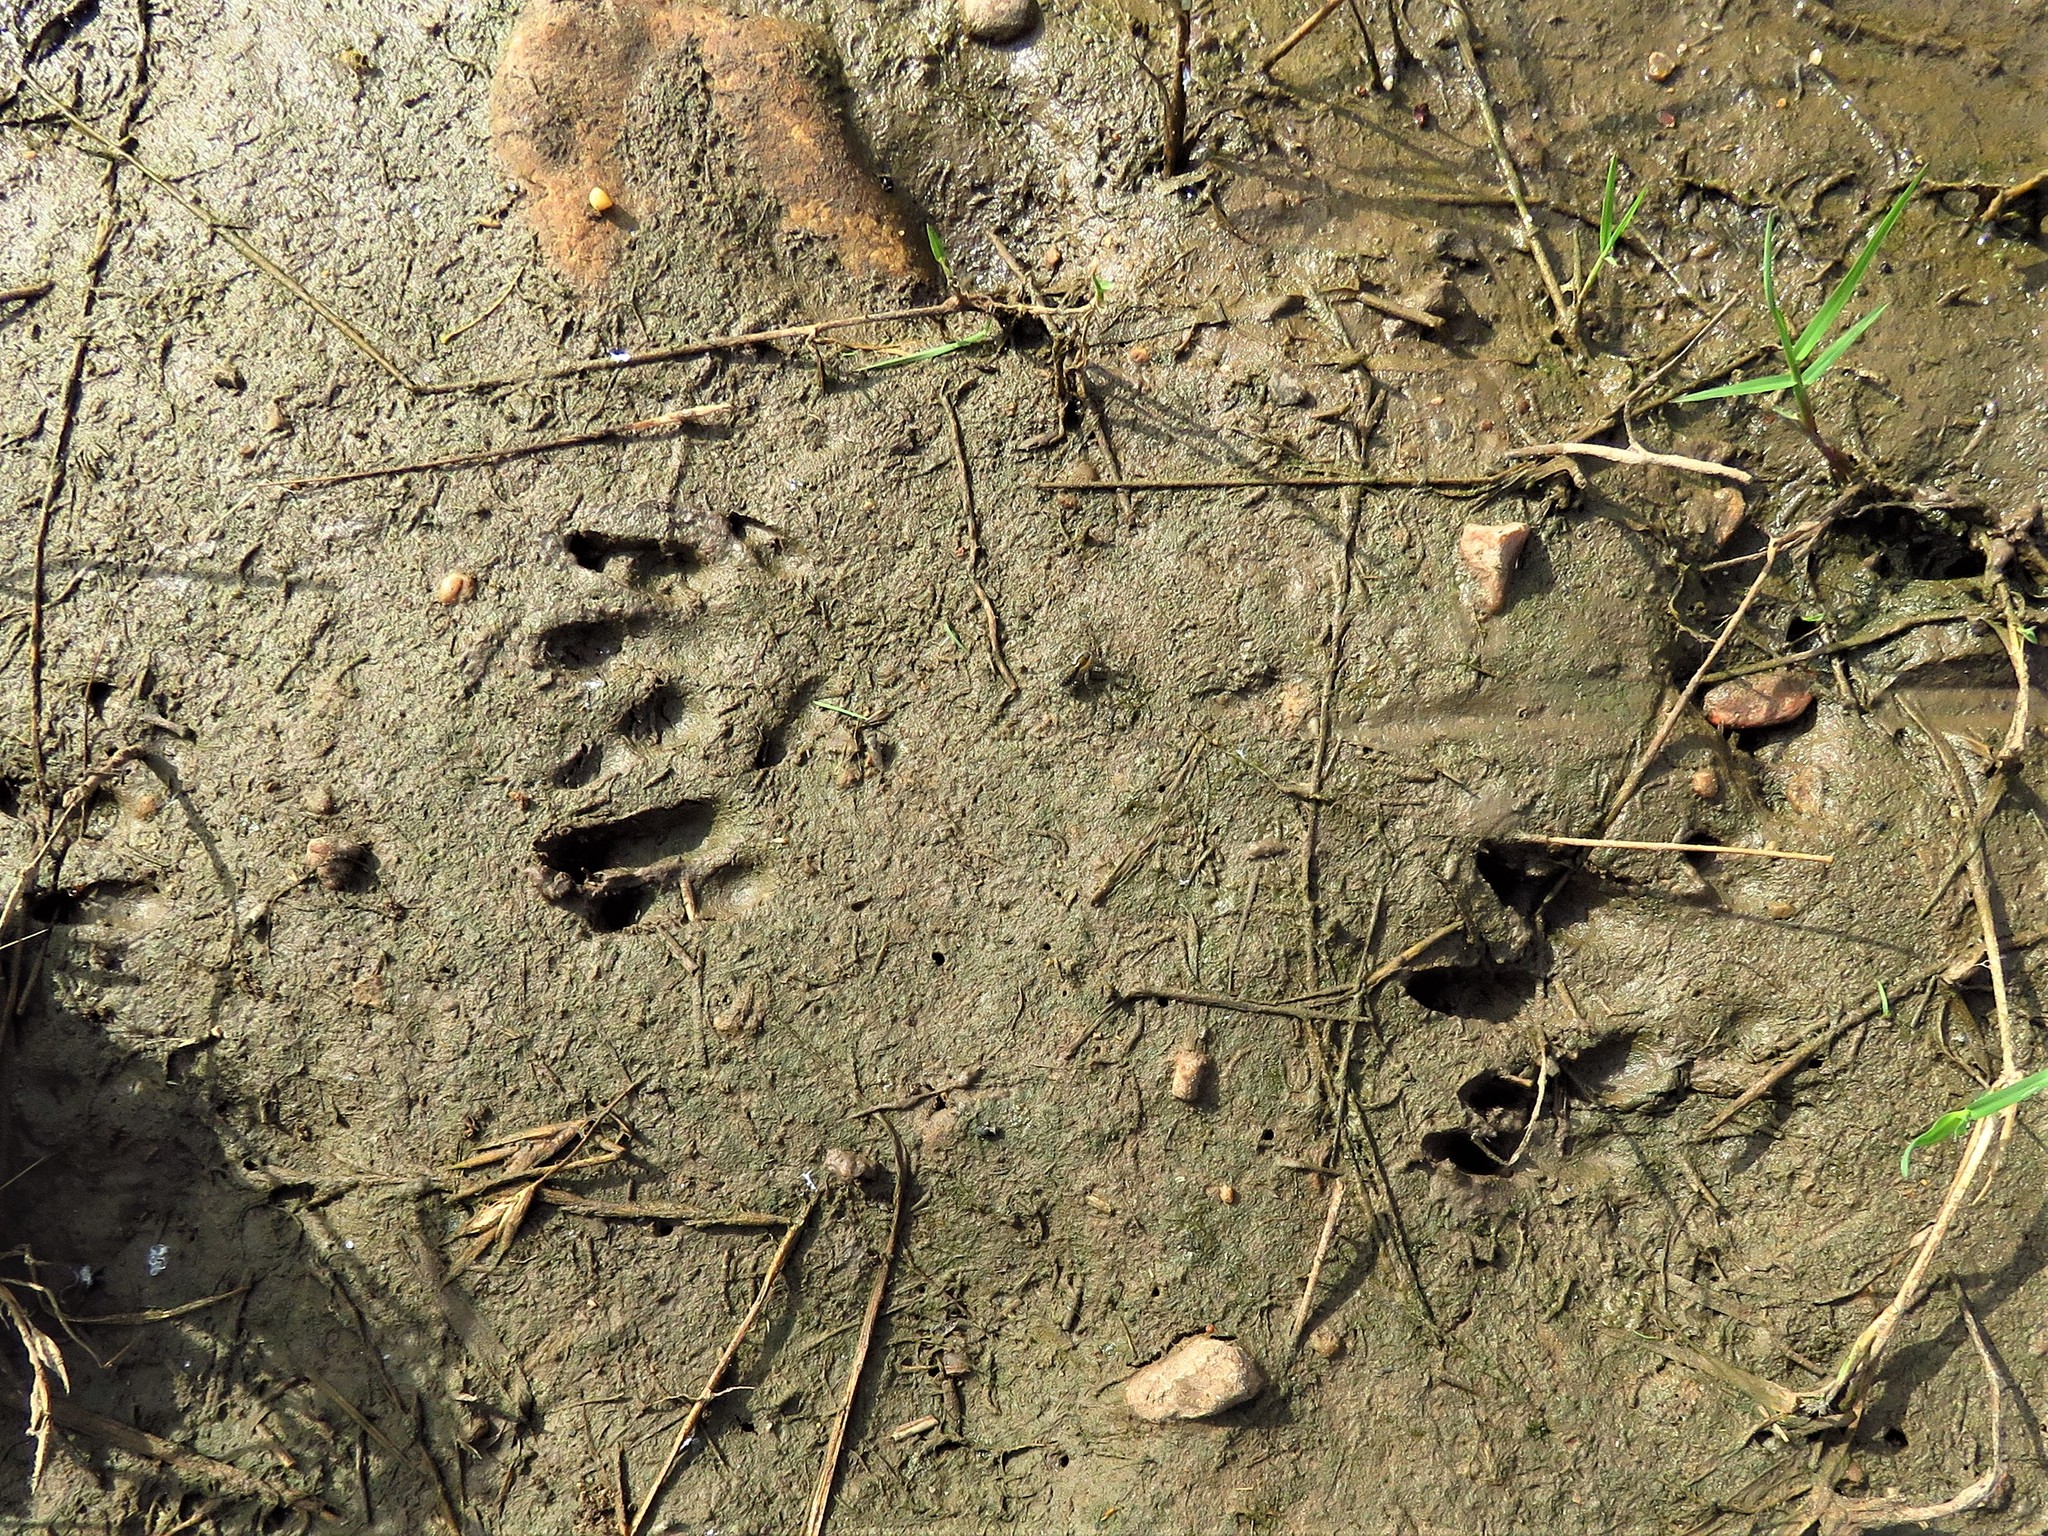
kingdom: Animalia
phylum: Chordata
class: Mammalia
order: Cingulata
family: Dasypodidae
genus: Dasypus
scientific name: Dasypus novemcinctus
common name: Nine-banded armadillo
